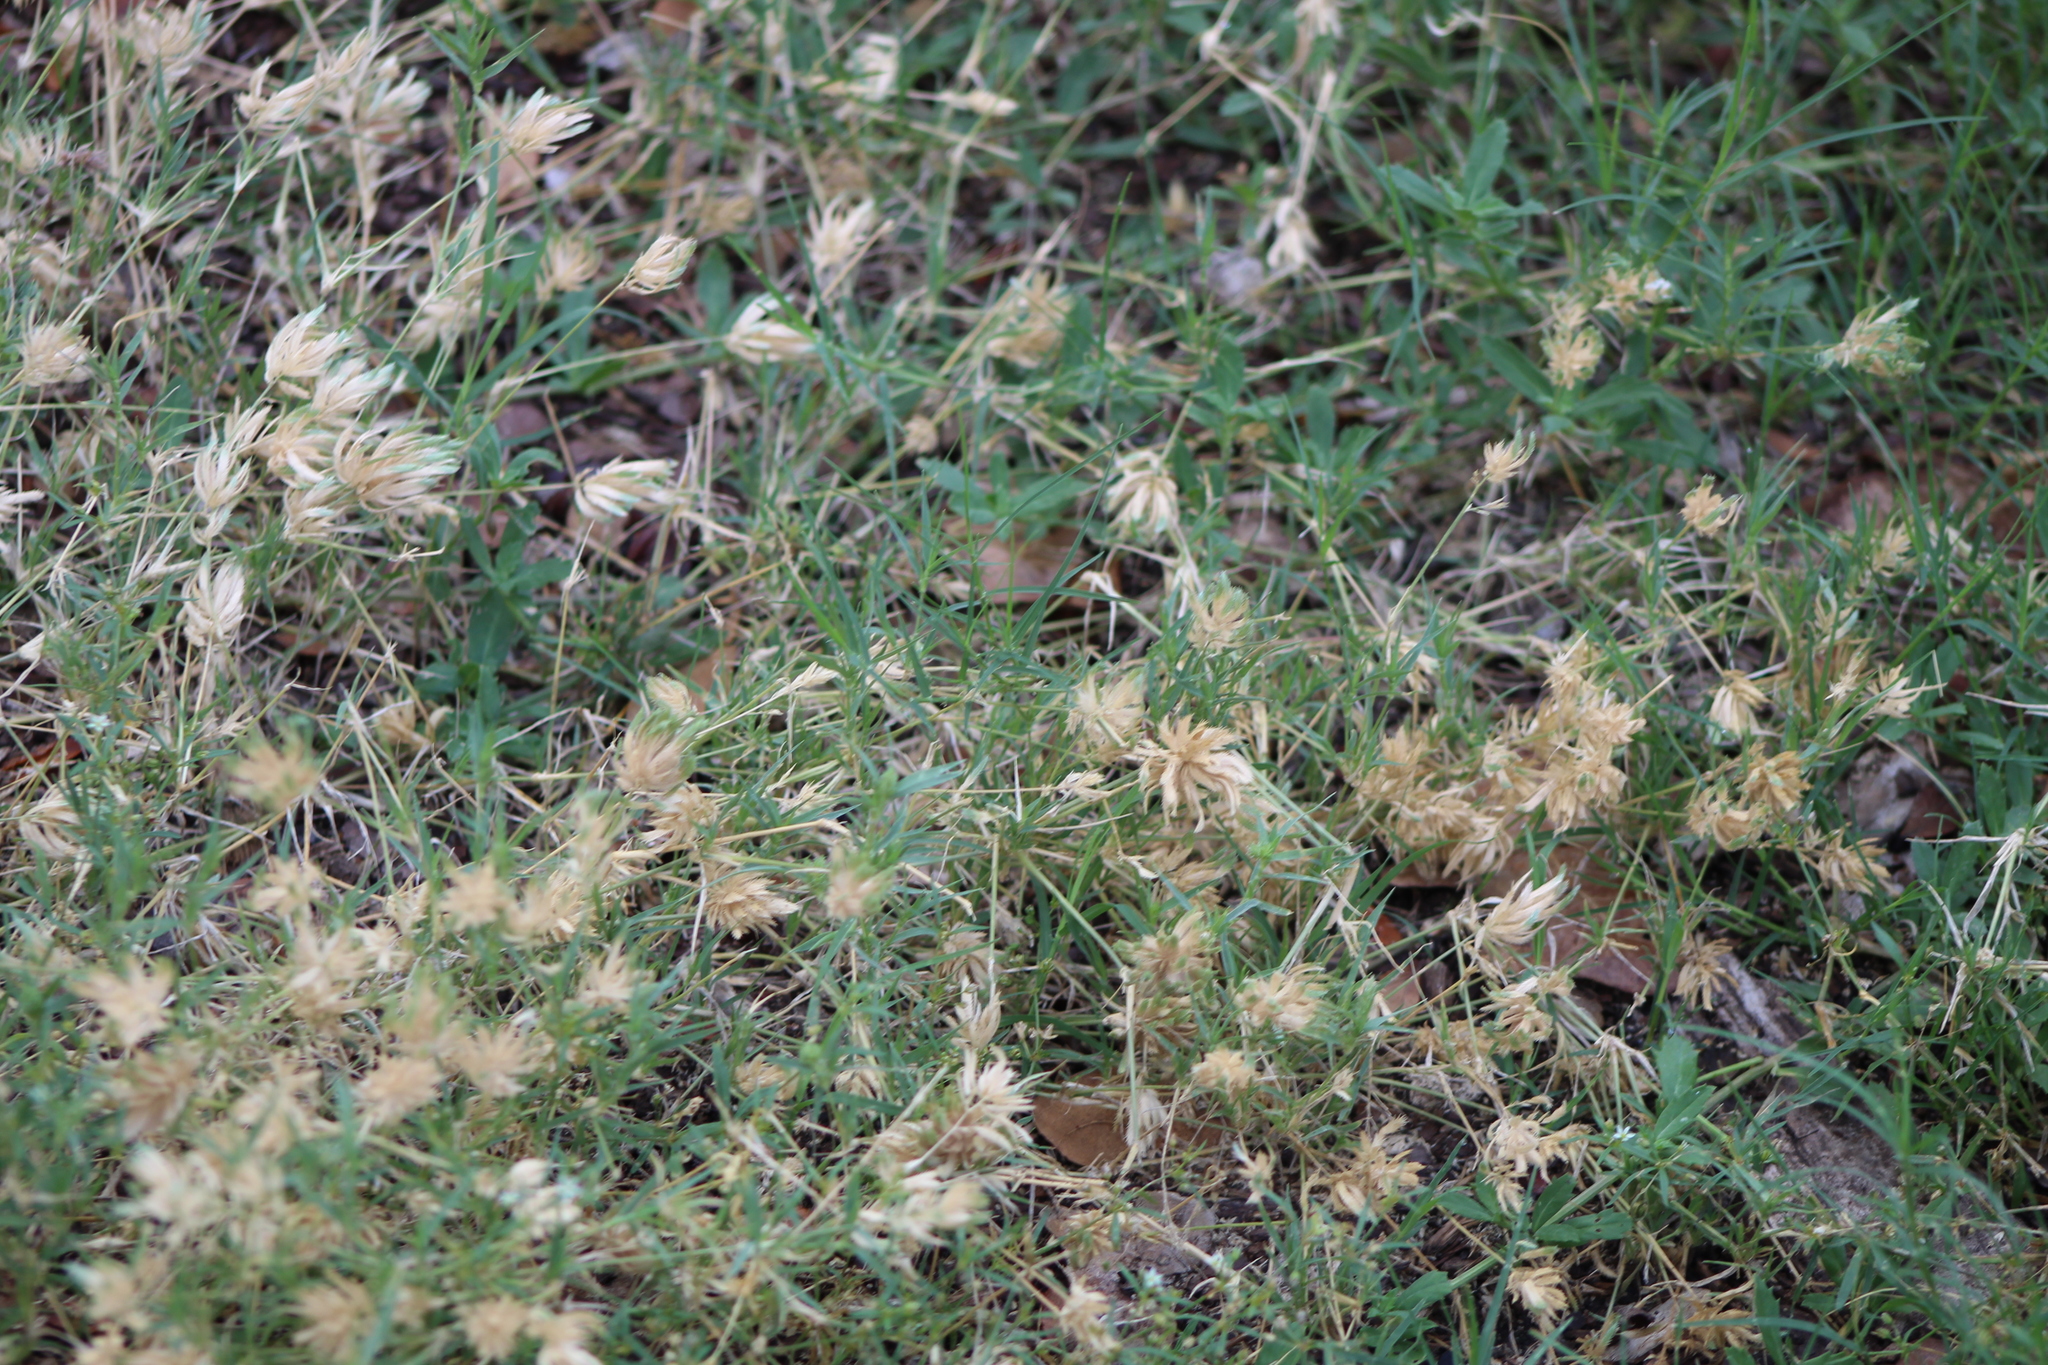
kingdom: Plantae
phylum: Tracheophyta
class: Liliopsida
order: Poales
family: Poaceae
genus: Eragrostis
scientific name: Eragrostis reptans
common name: Creeping love grass
